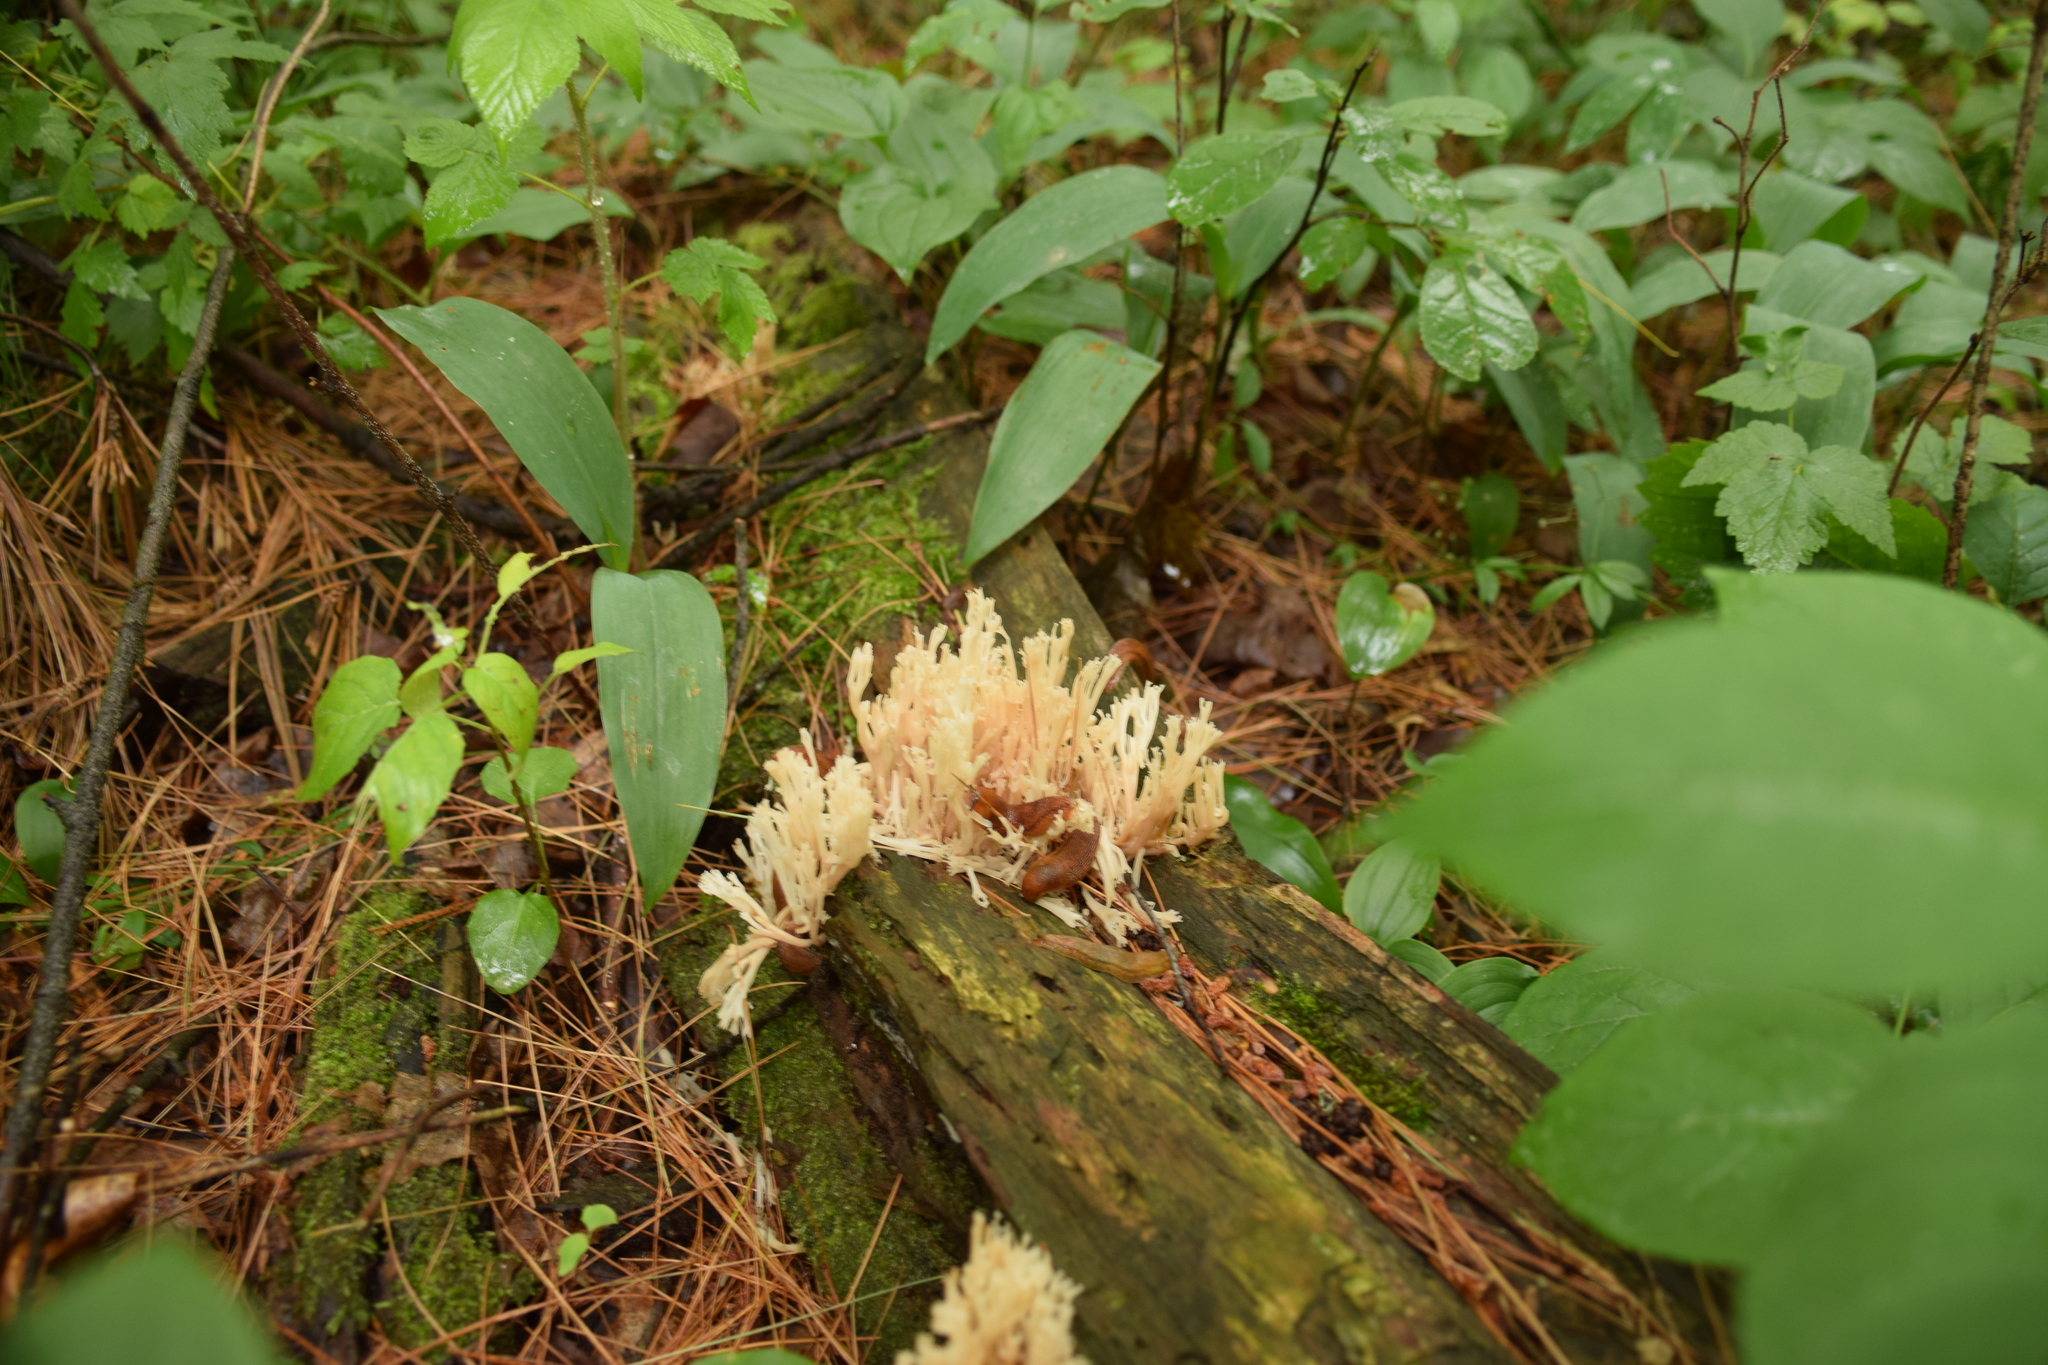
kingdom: Fungi
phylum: Basidiomycota
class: Agaricomycetes
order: Russulales
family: Auriscalpiaceae
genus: Artomyces
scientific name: Artomyces pyxidatus
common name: Crown-tipped coral fungus
